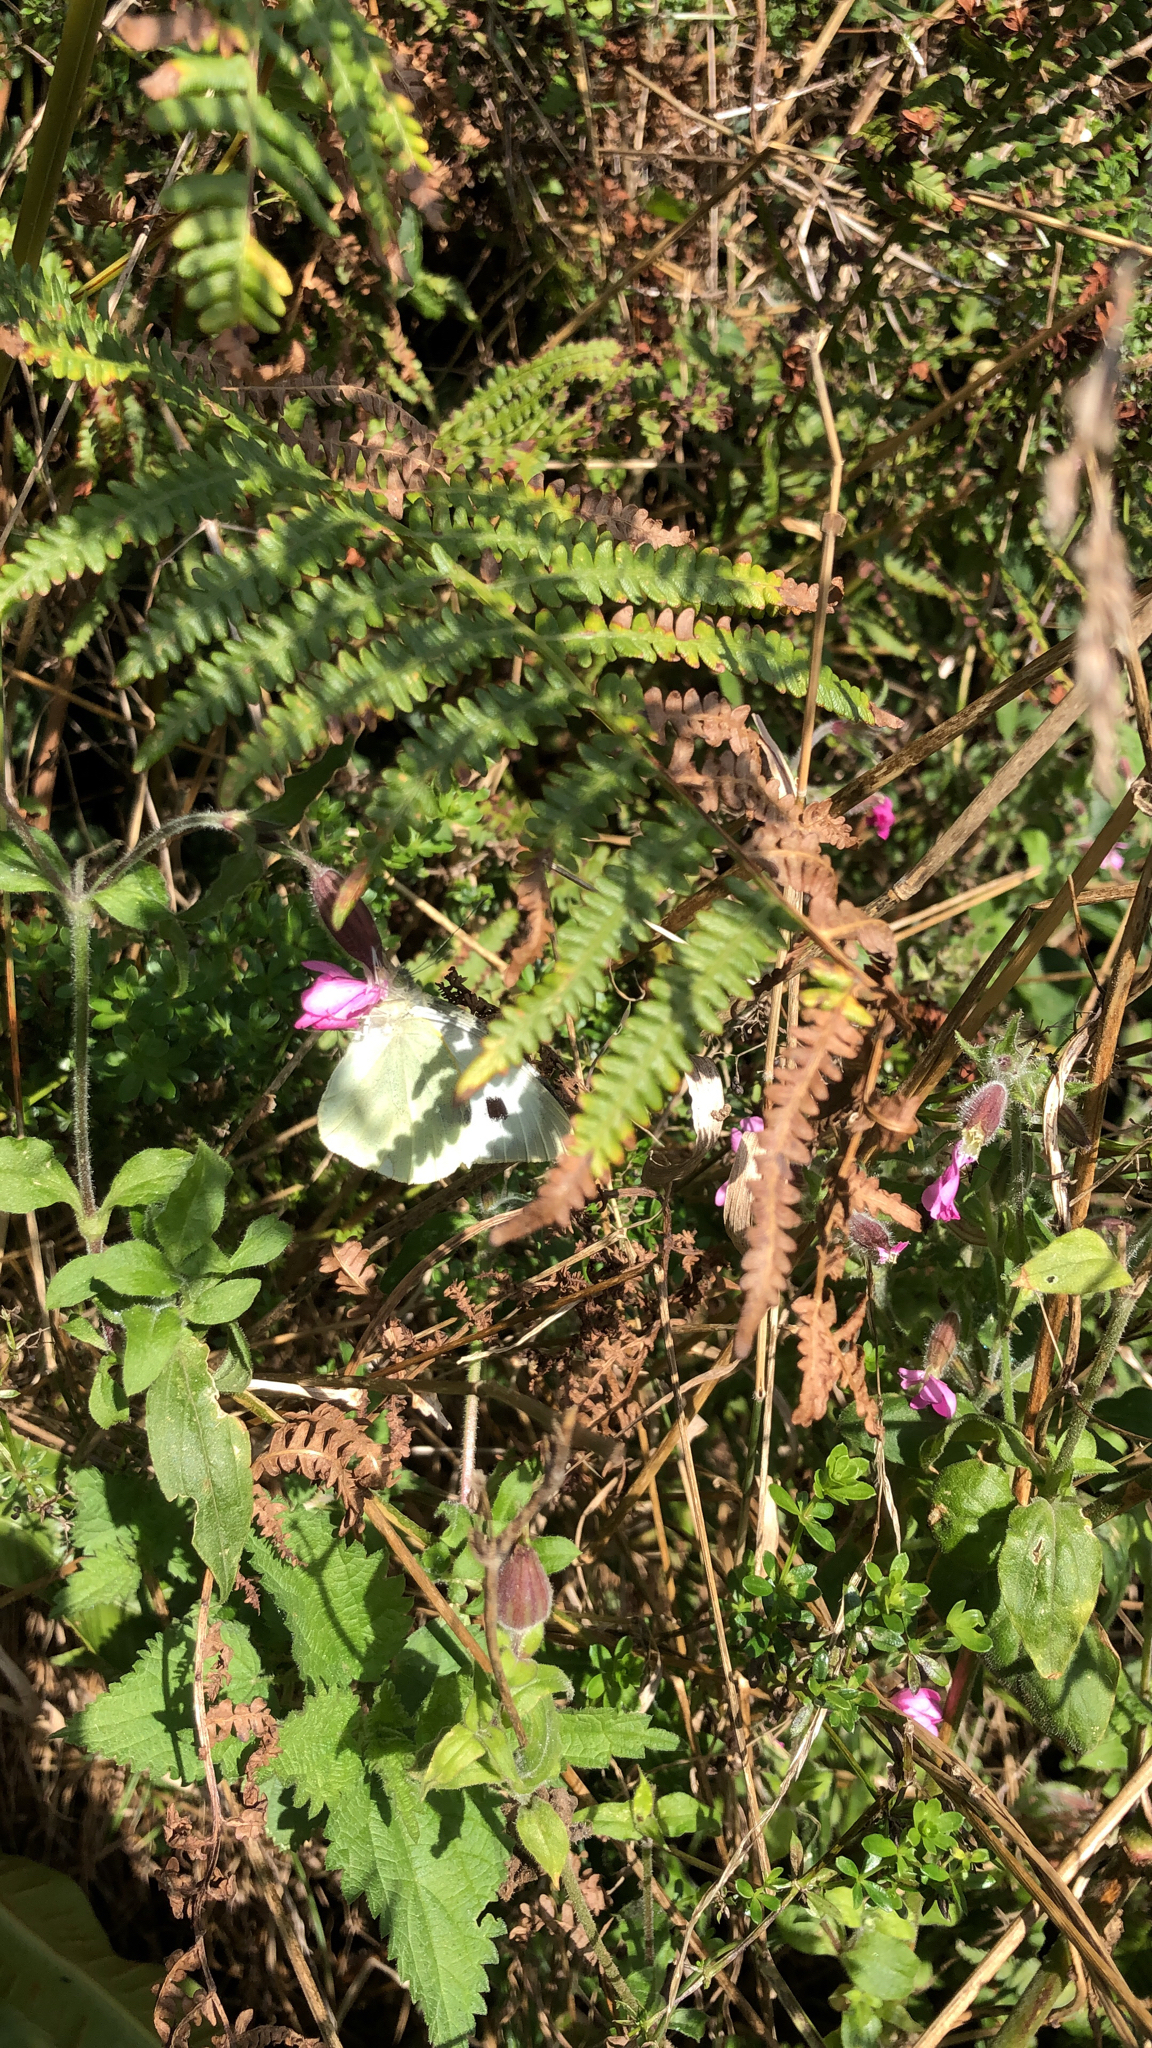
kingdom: Animalia
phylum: Arthropoda
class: Insecta
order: Lepidoptera
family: Pieridae
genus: Pieris
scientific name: Pieris brassicae
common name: Large white
